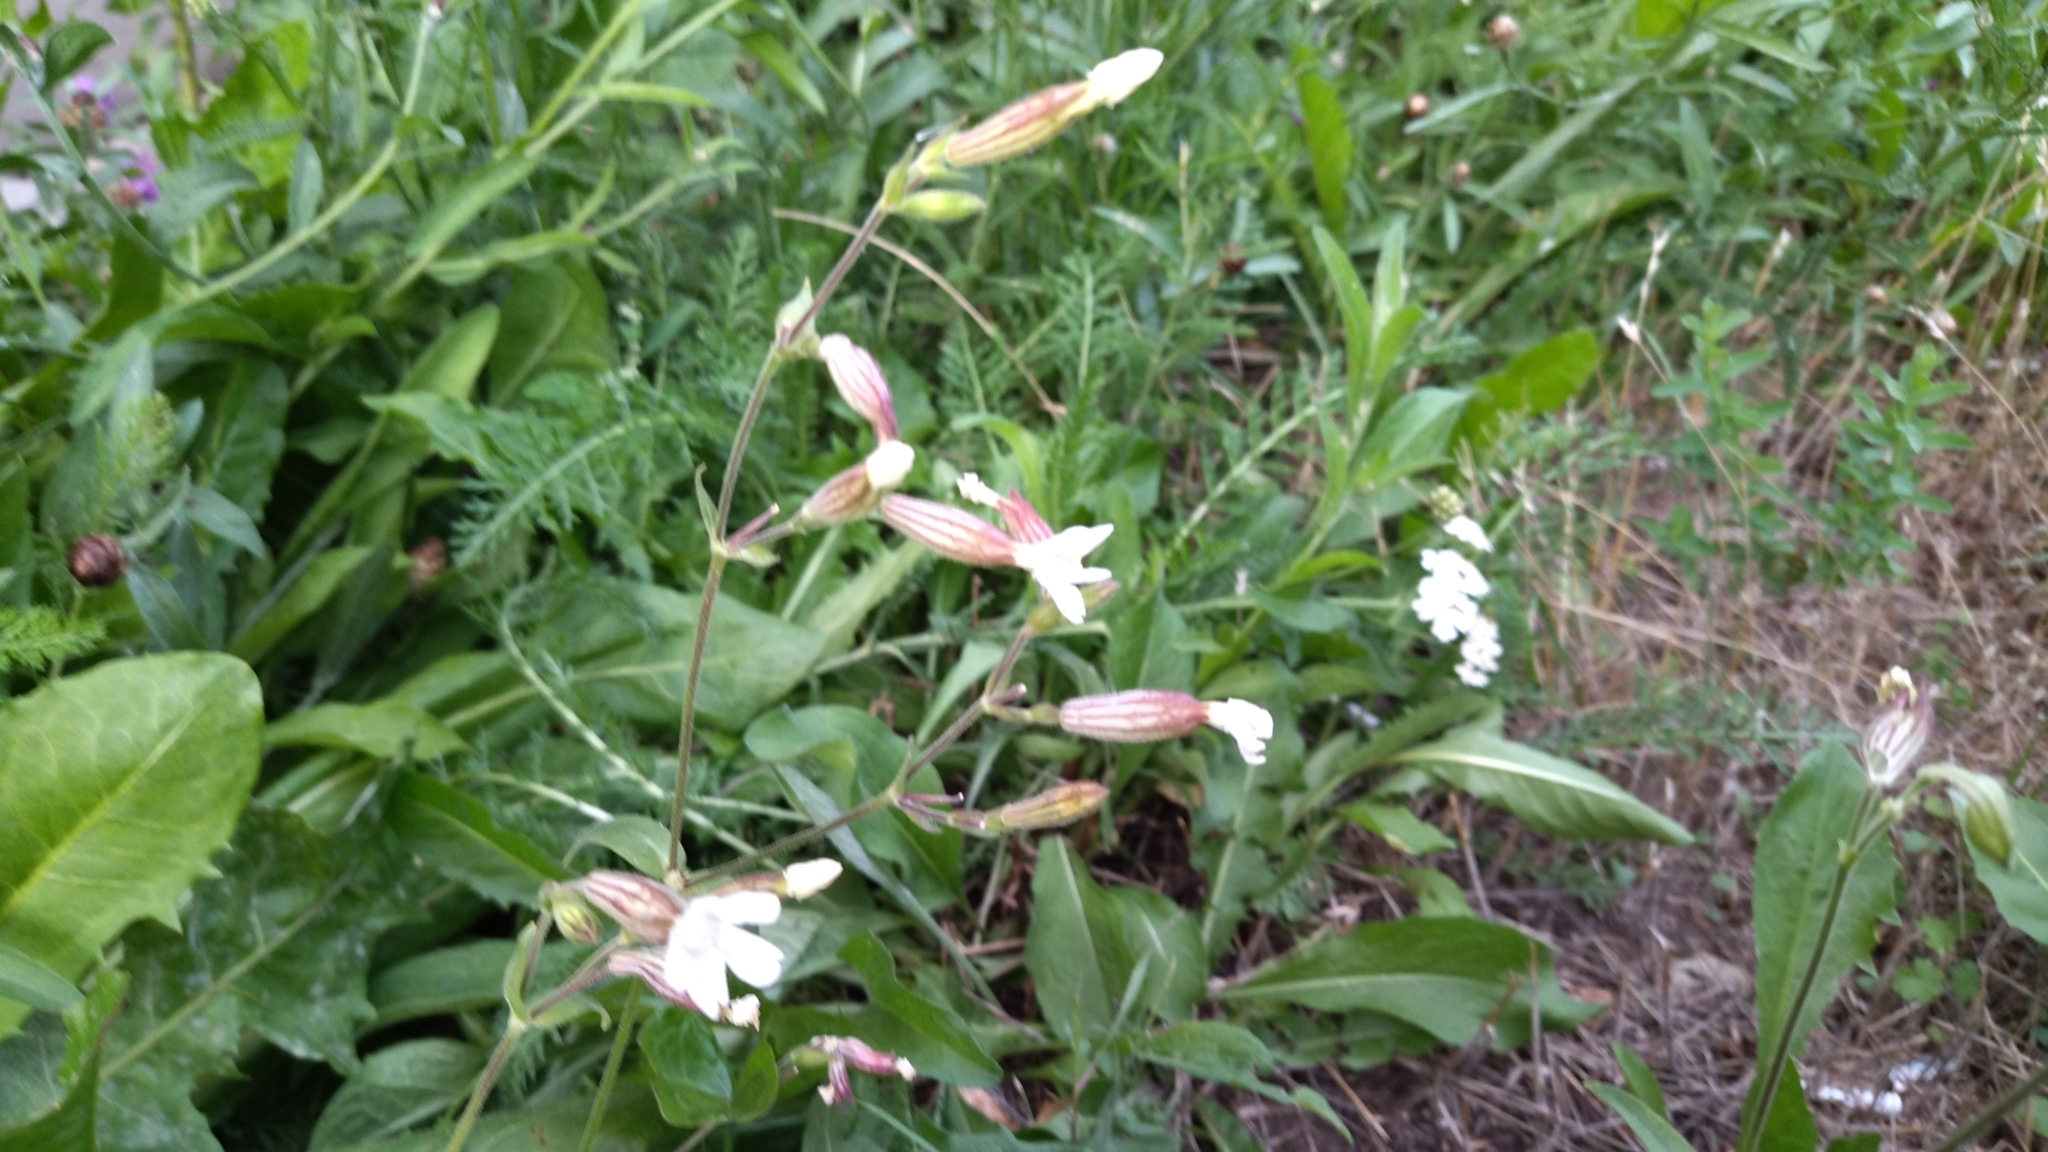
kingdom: Plantae
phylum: Tracheophyta
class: Magnoliopsida
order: Caryophyllales
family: Caryophyllaceae
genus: Silene
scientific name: Silene latifolia
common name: White campion
